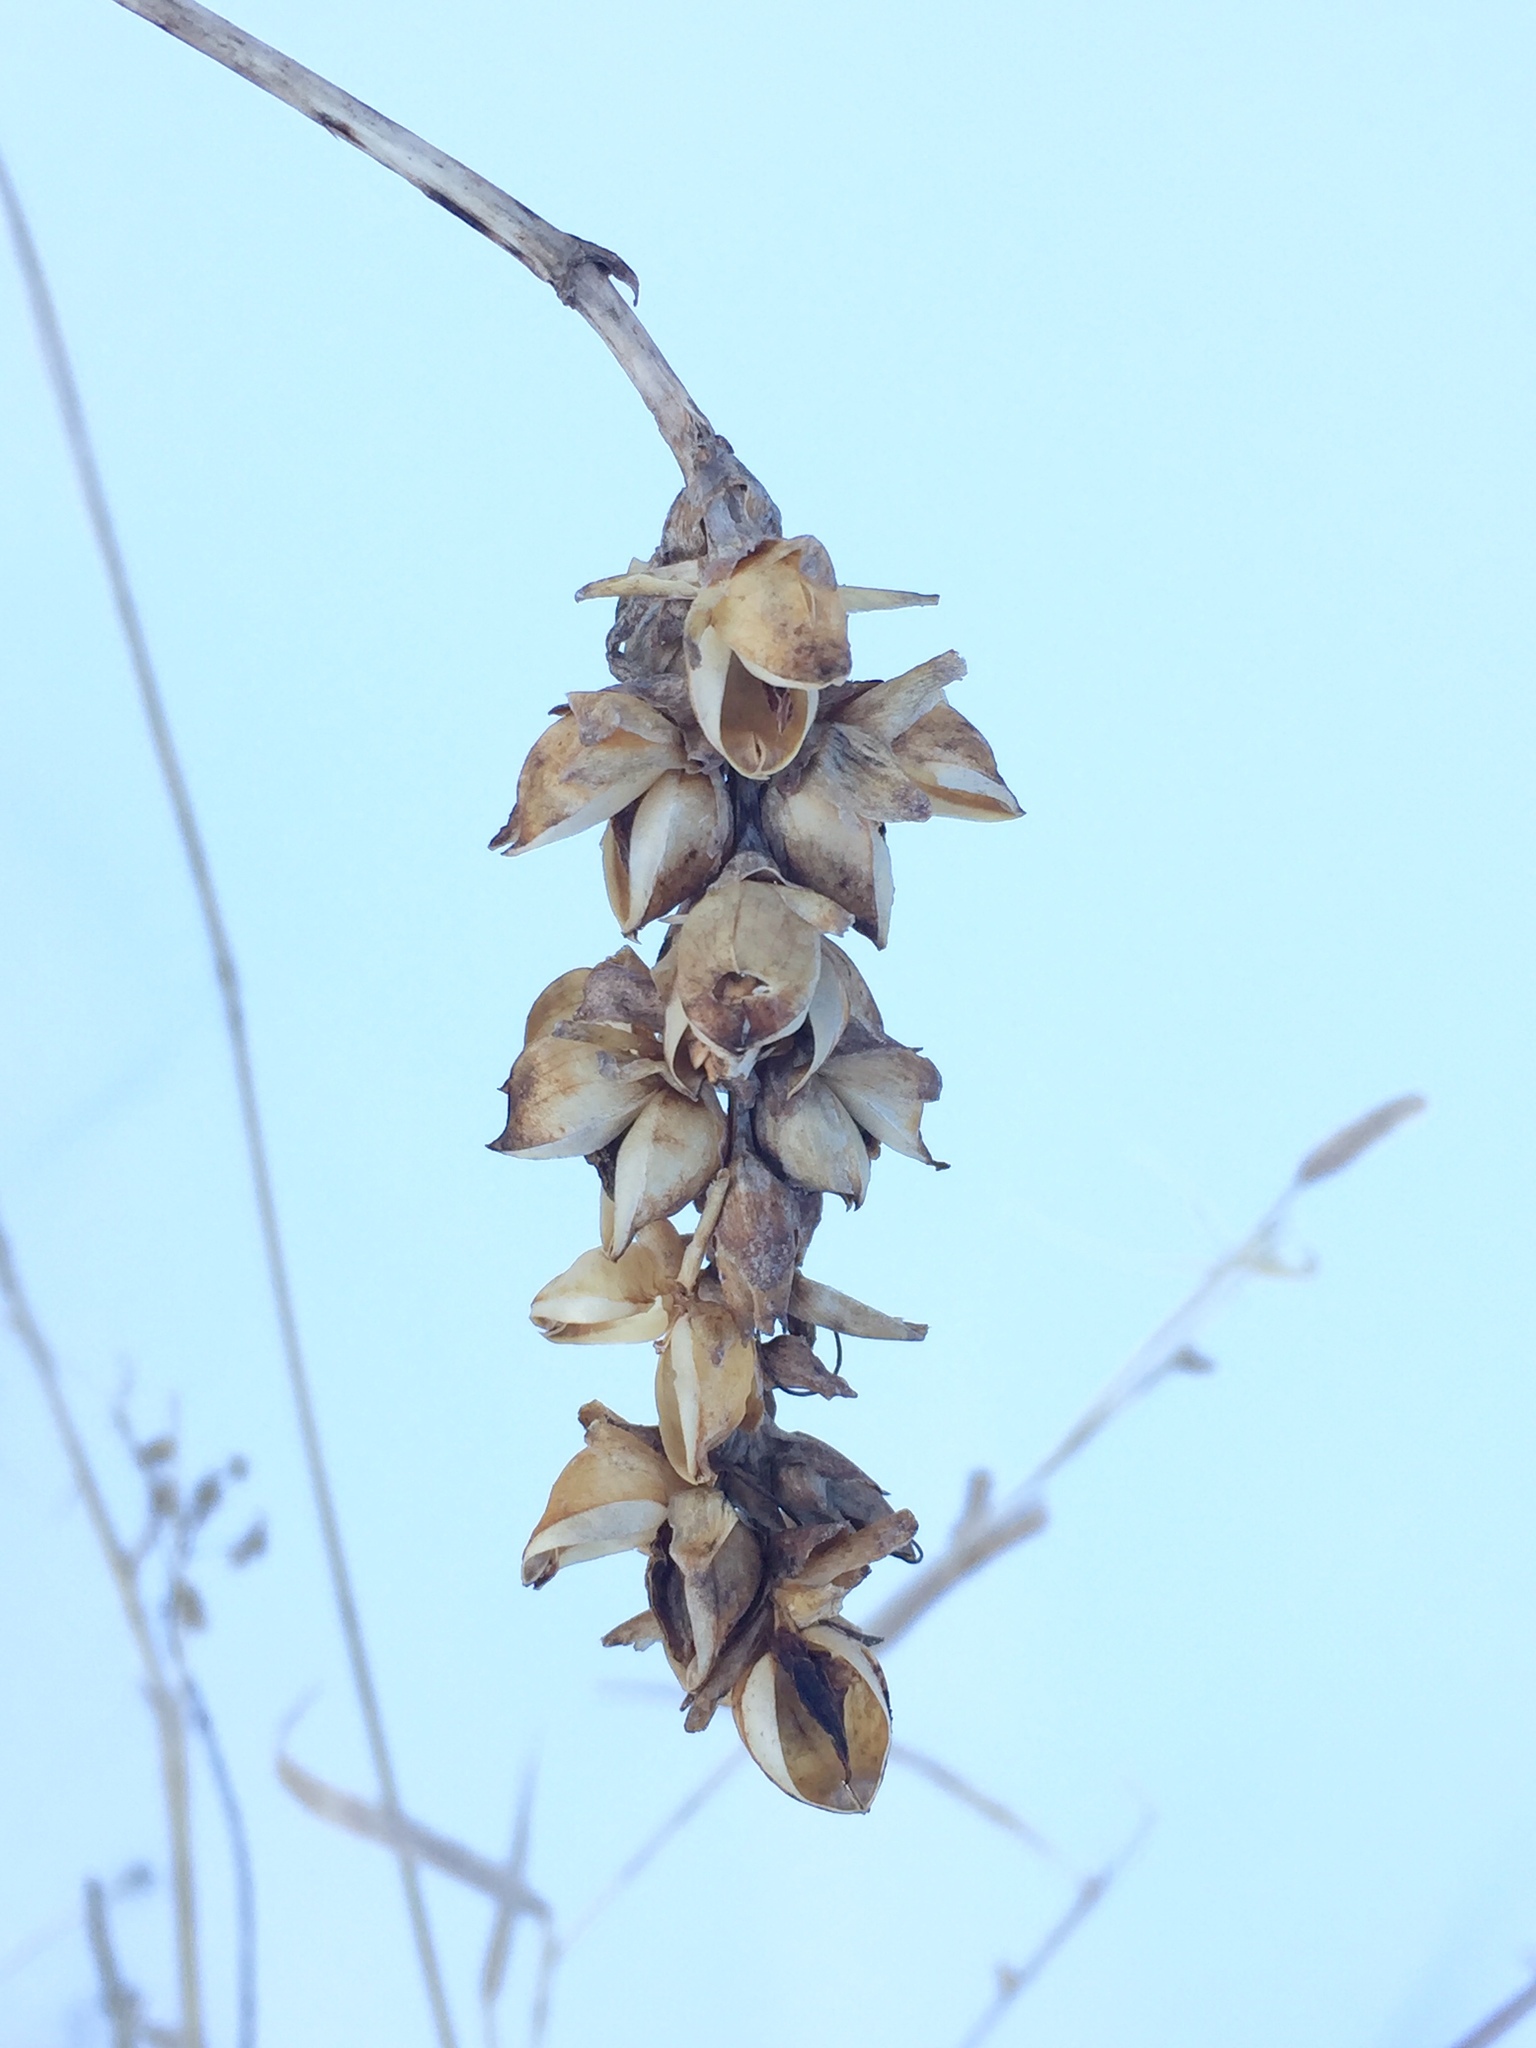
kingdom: Plantae
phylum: Tracheophyta
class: Magnoliopsida
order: Lamiales
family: Plantaginaceae
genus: Chelone
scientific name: Chelone glabra
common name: Snakehead
